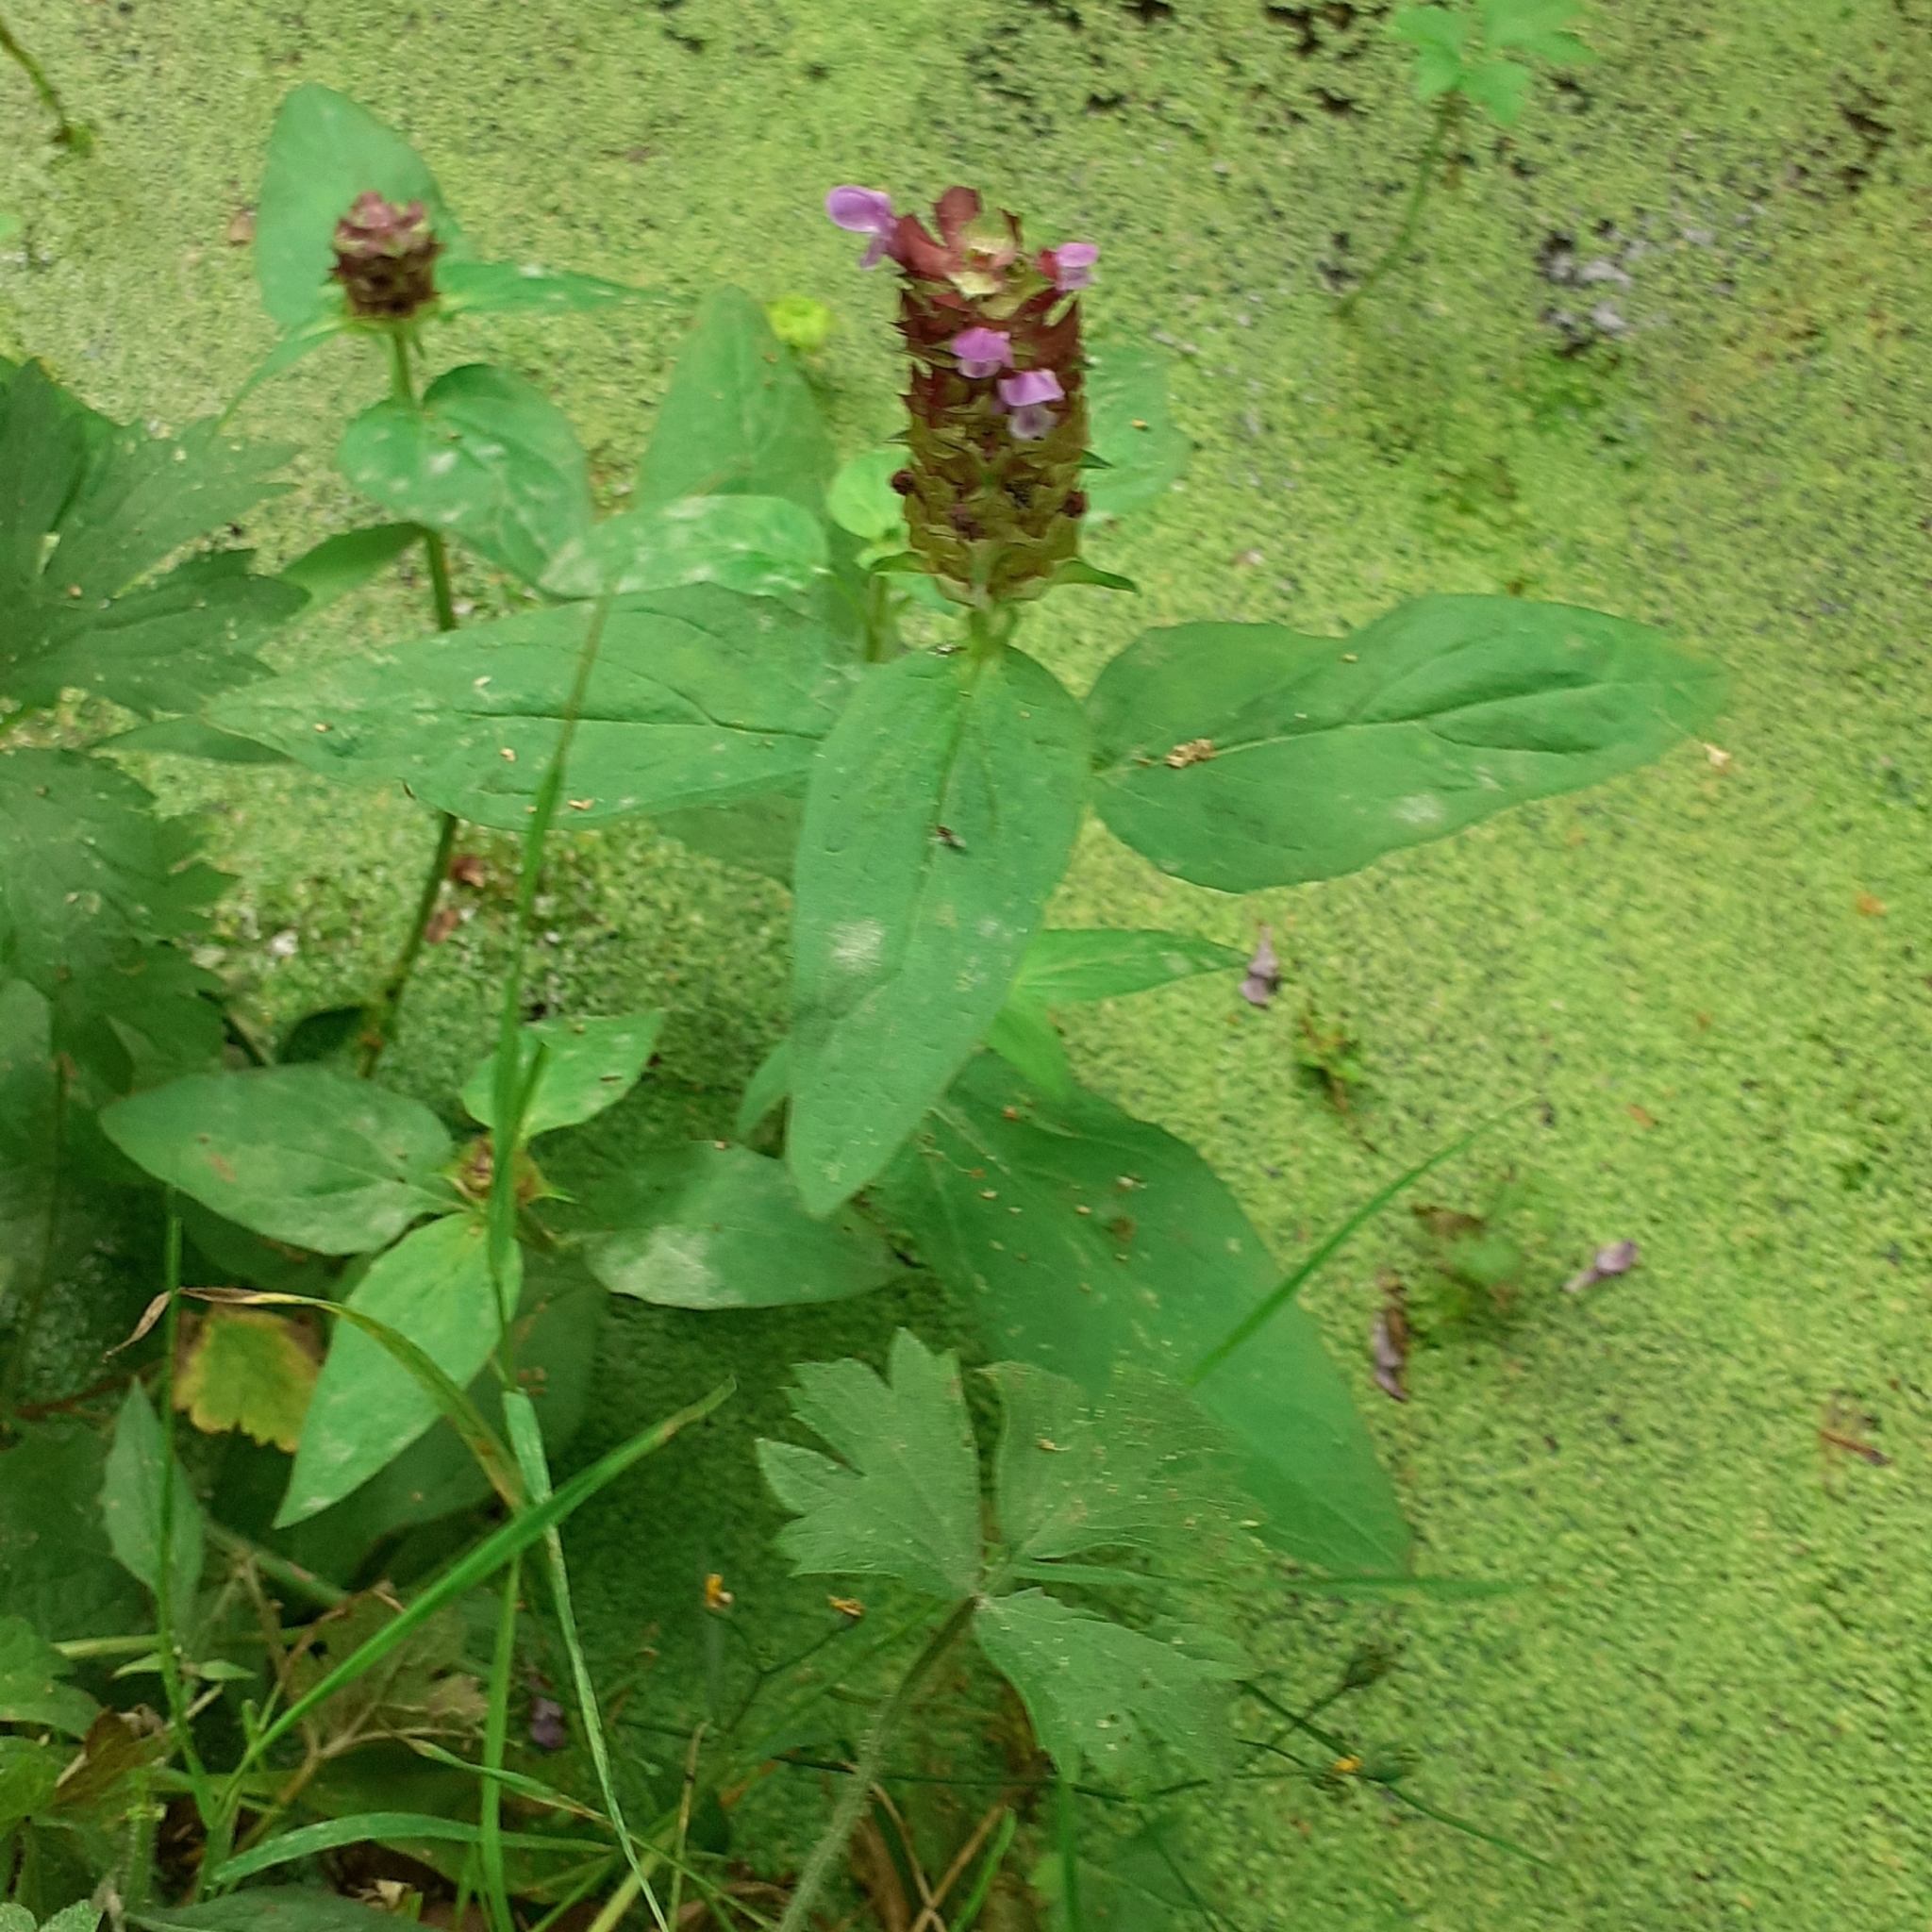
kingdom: Plantae
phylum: Tracheophyta
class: Magnoliopsida
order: Lamiales
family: Lamiaceae
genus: Prunella
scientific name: Prunella vulgaris
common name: Heal-all
